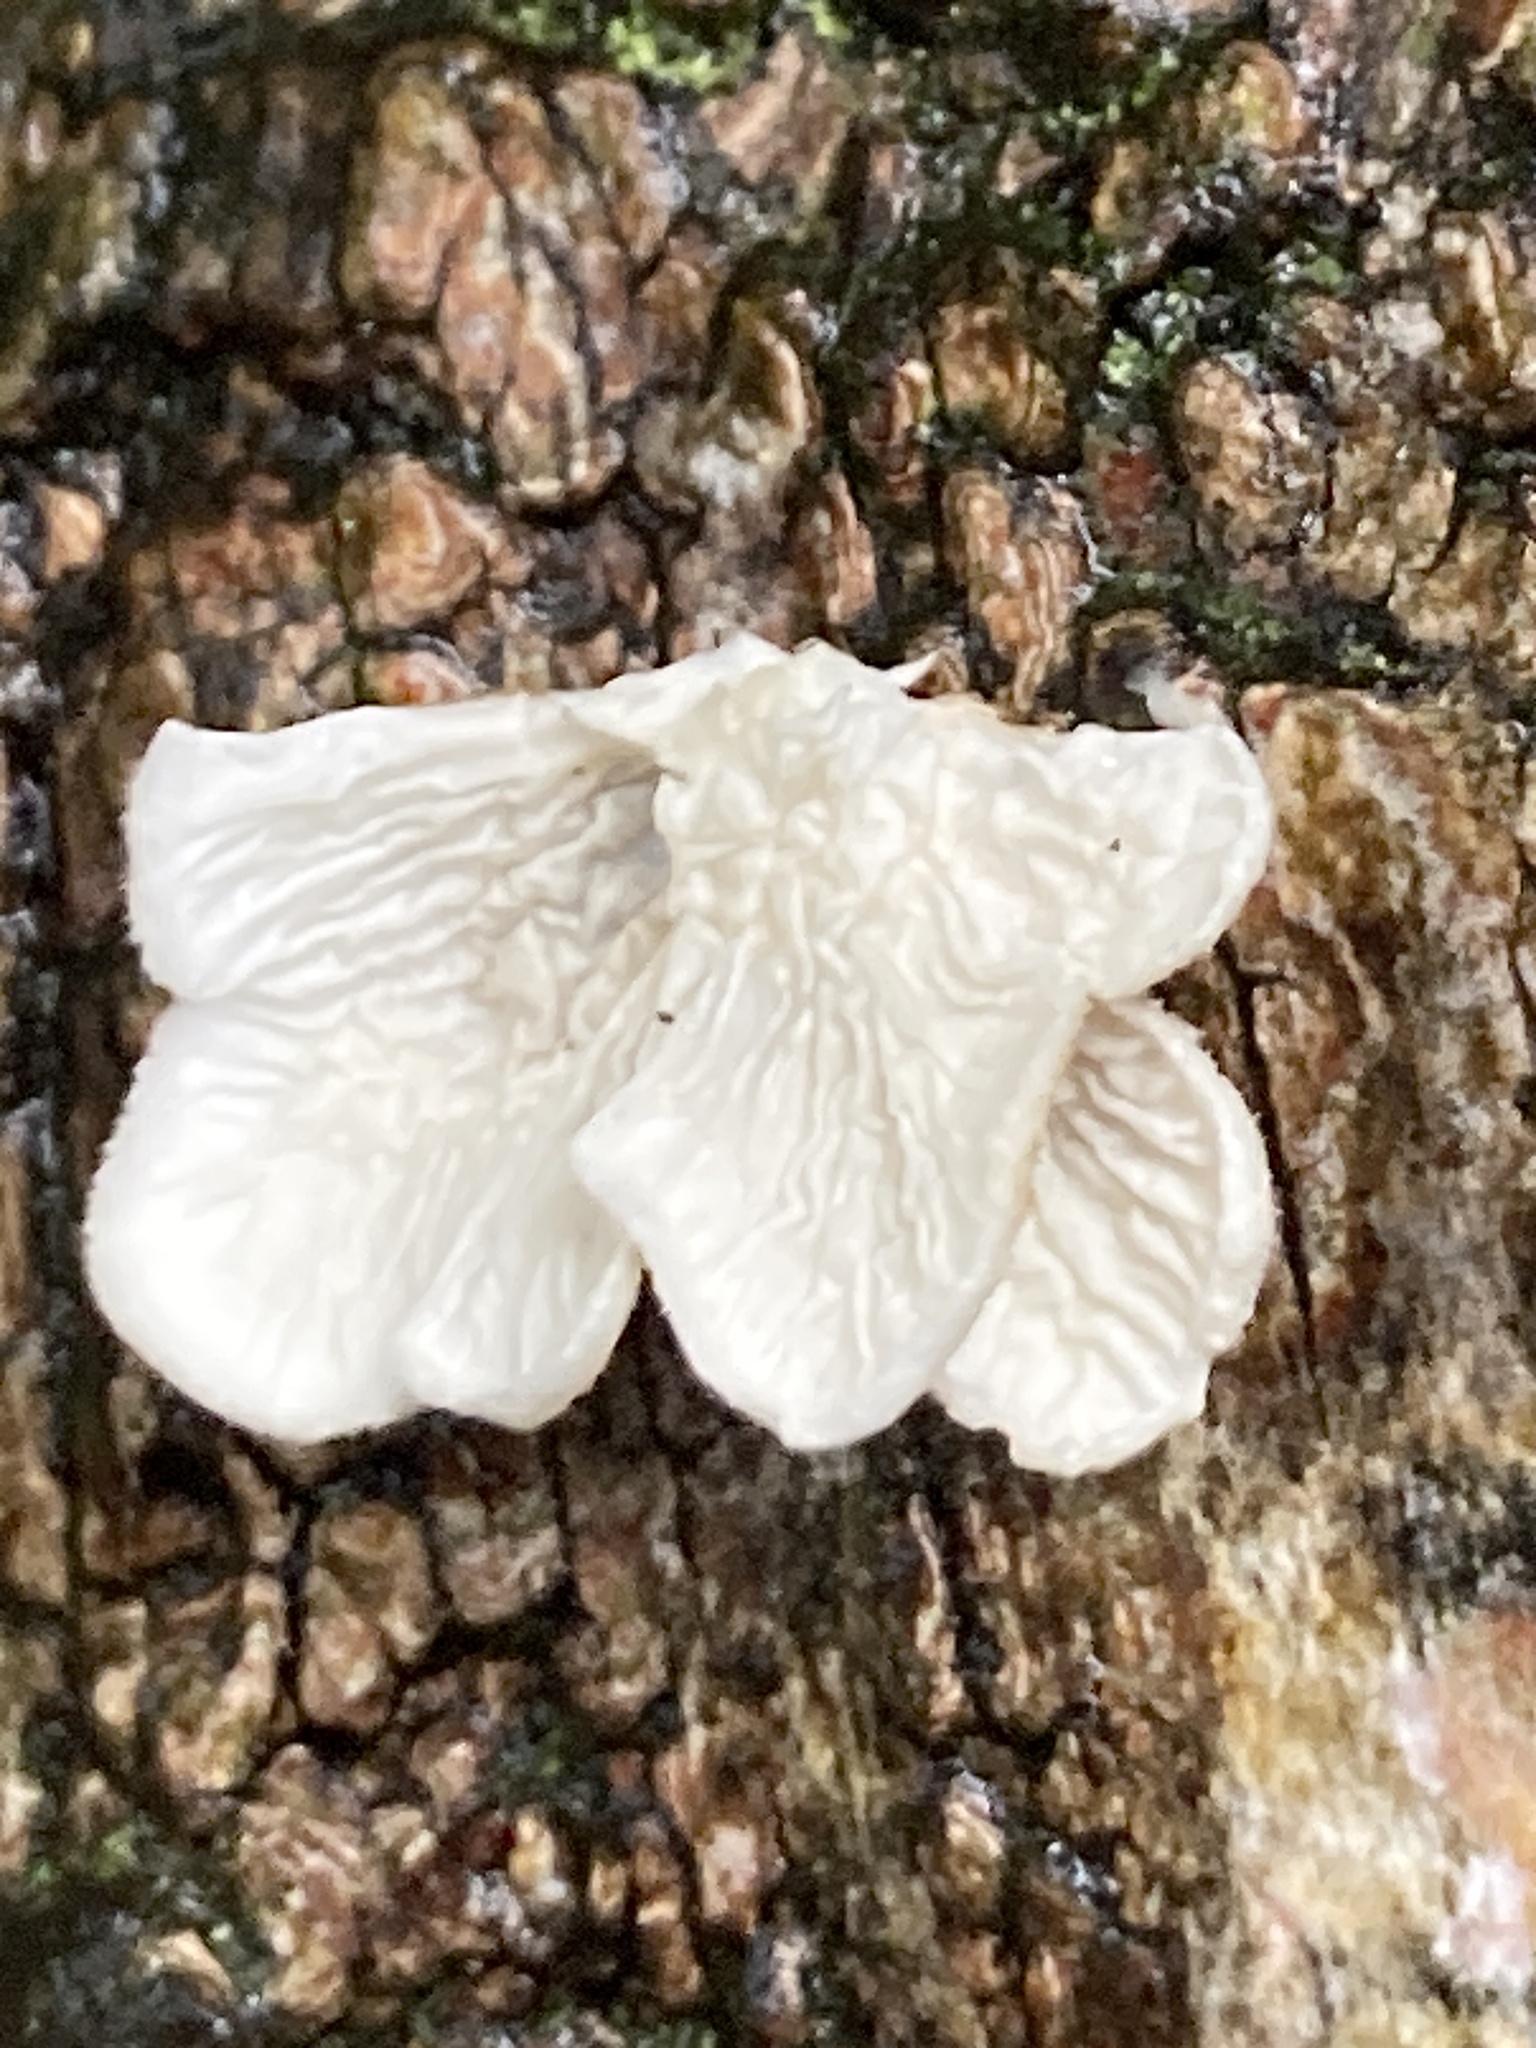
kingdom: Fungi
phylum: Basidiomycota
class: Agaricomycetes
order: Amylocorticiales
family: Amylocorticiaceae
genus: Plicaturopsis
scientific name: Plicaturopsis crispa
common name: Crimped gill
